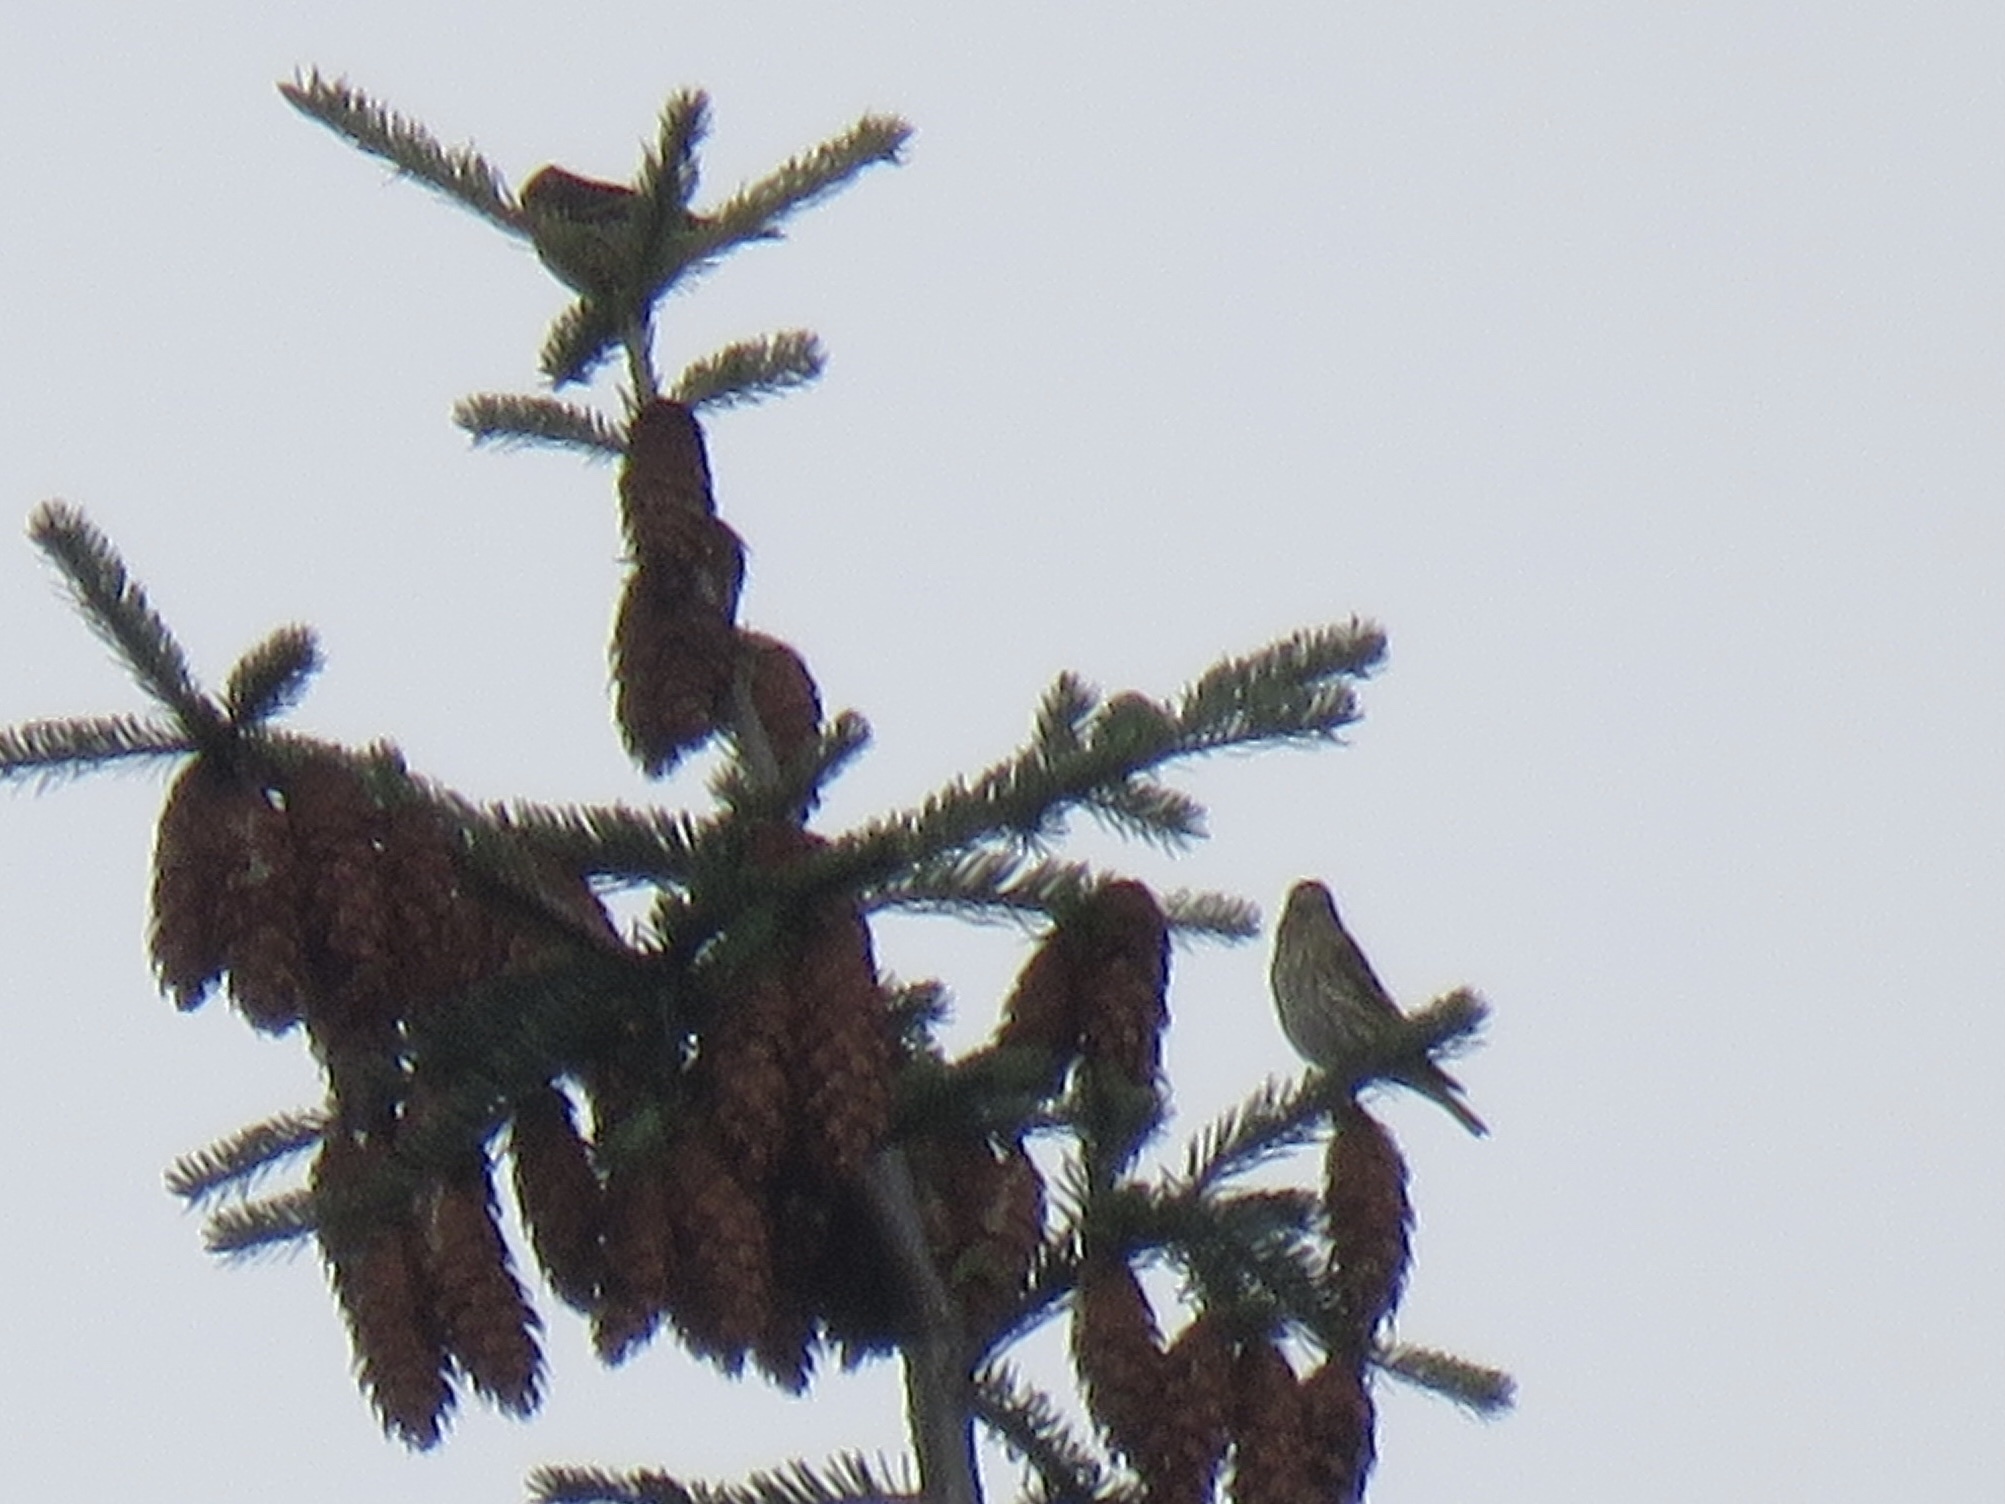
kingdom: Animalia
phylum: Chordata
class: Aves
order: Passeriformes
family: Fringillidae
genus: Spinus
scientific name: Spinus pinus
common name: Pine siskin
